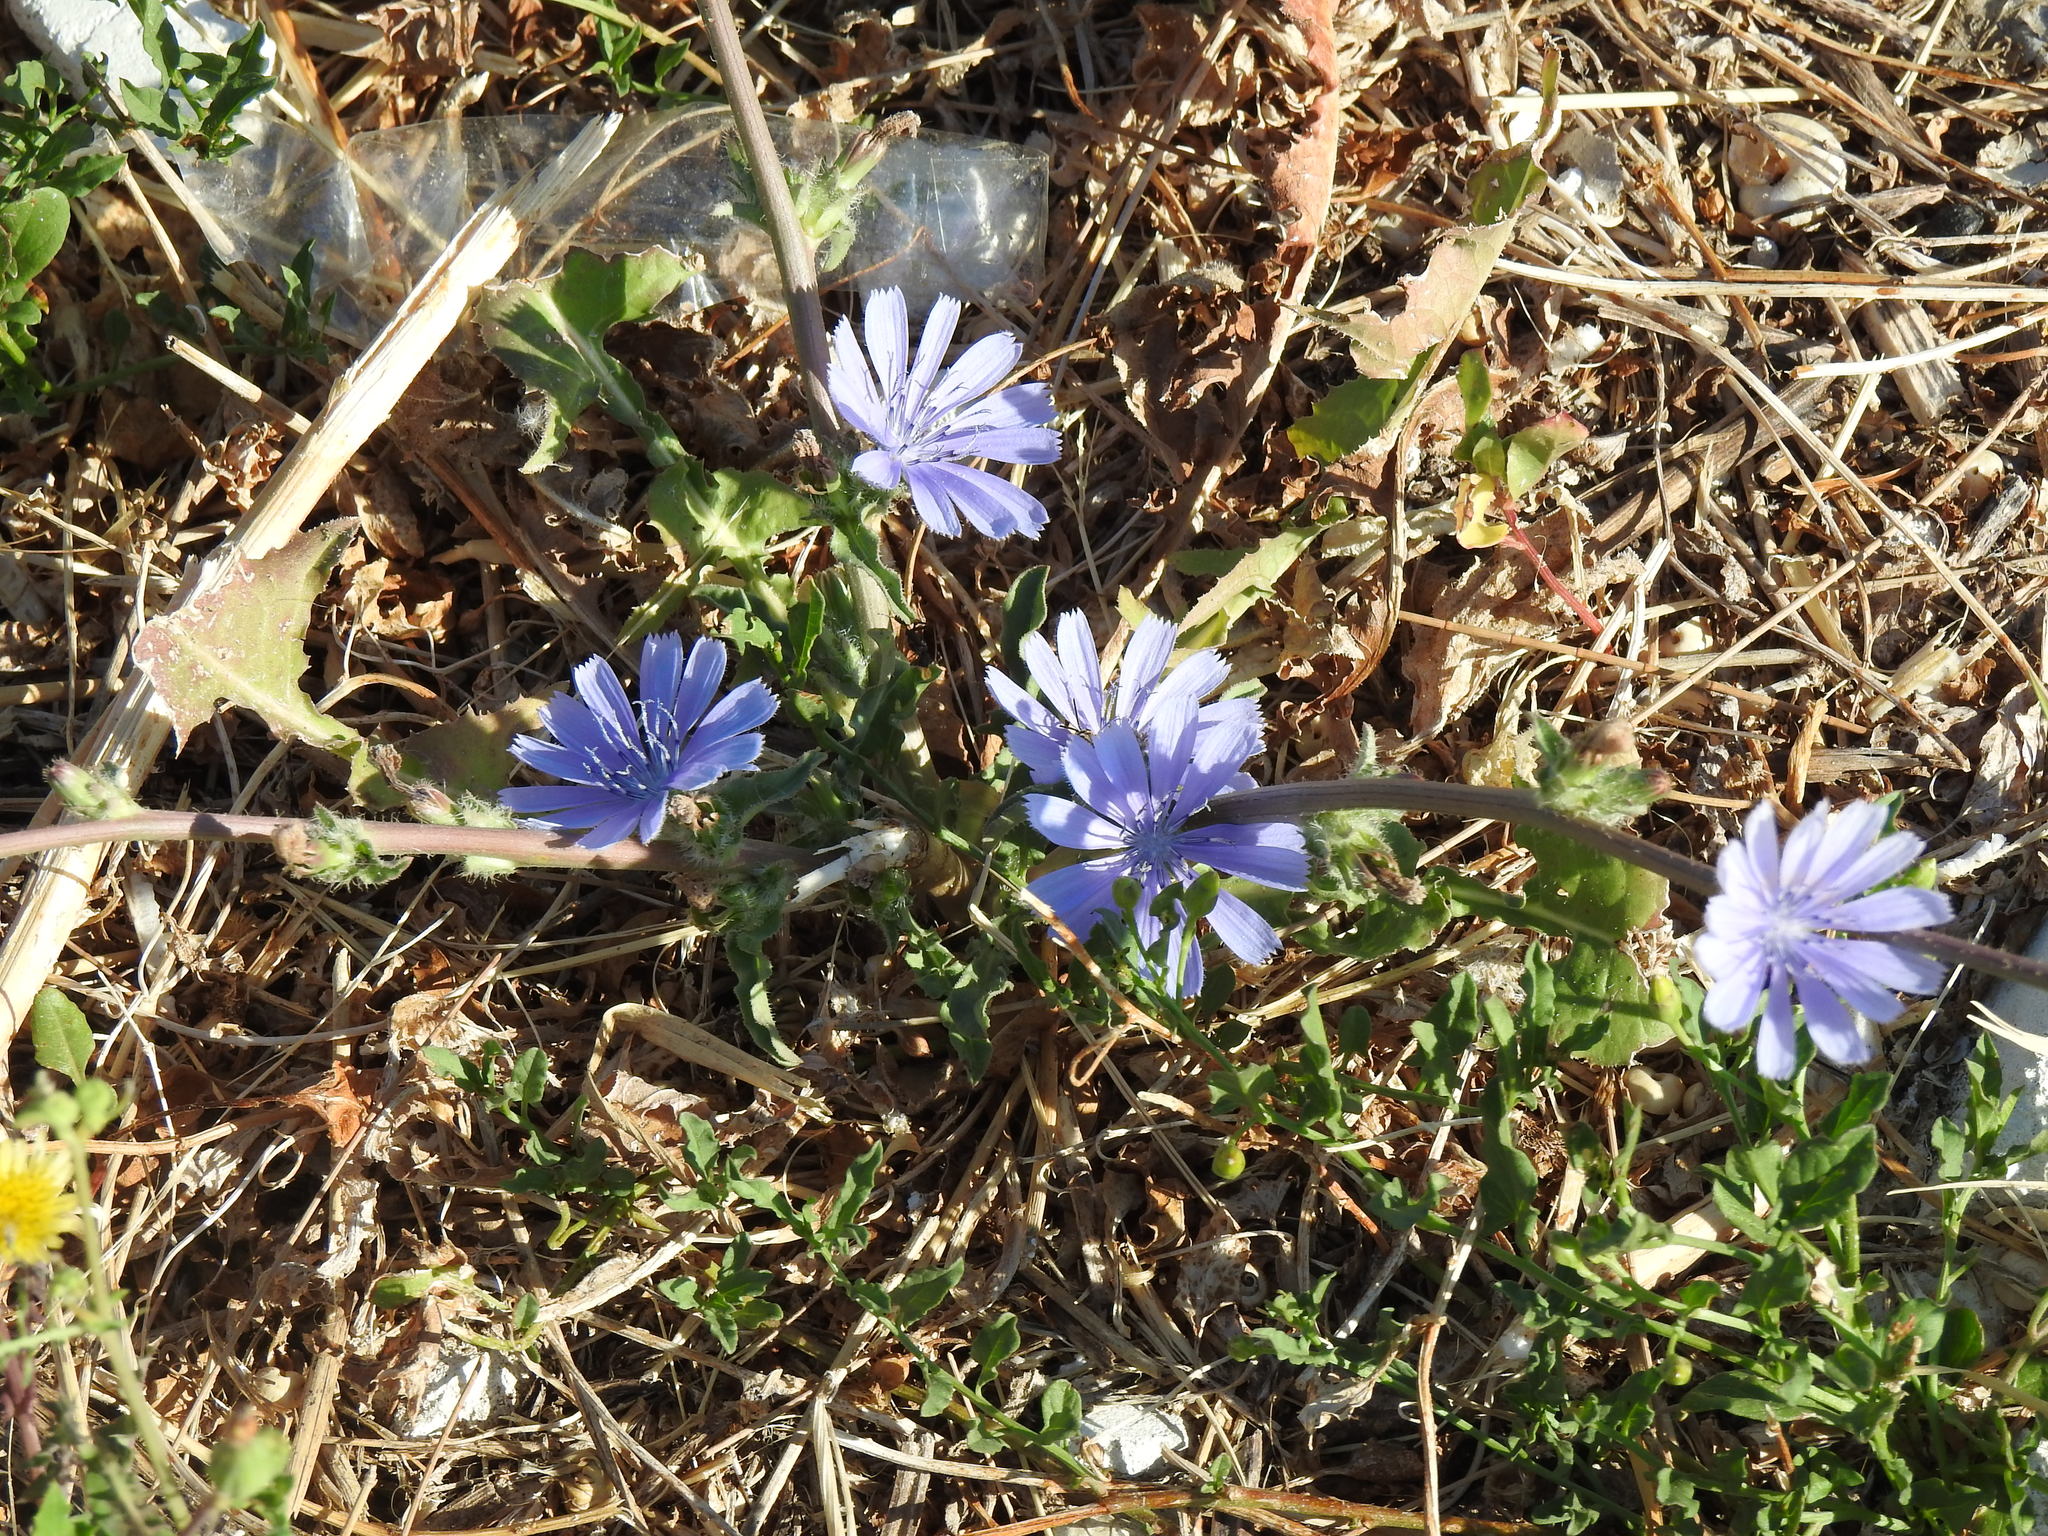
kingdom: Plantae
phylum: Tracheophyta
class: Magnoliopsida
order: Asterales
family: Asteraceae
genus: Cichorium
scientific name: Cichorium intybus
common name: Chicory
